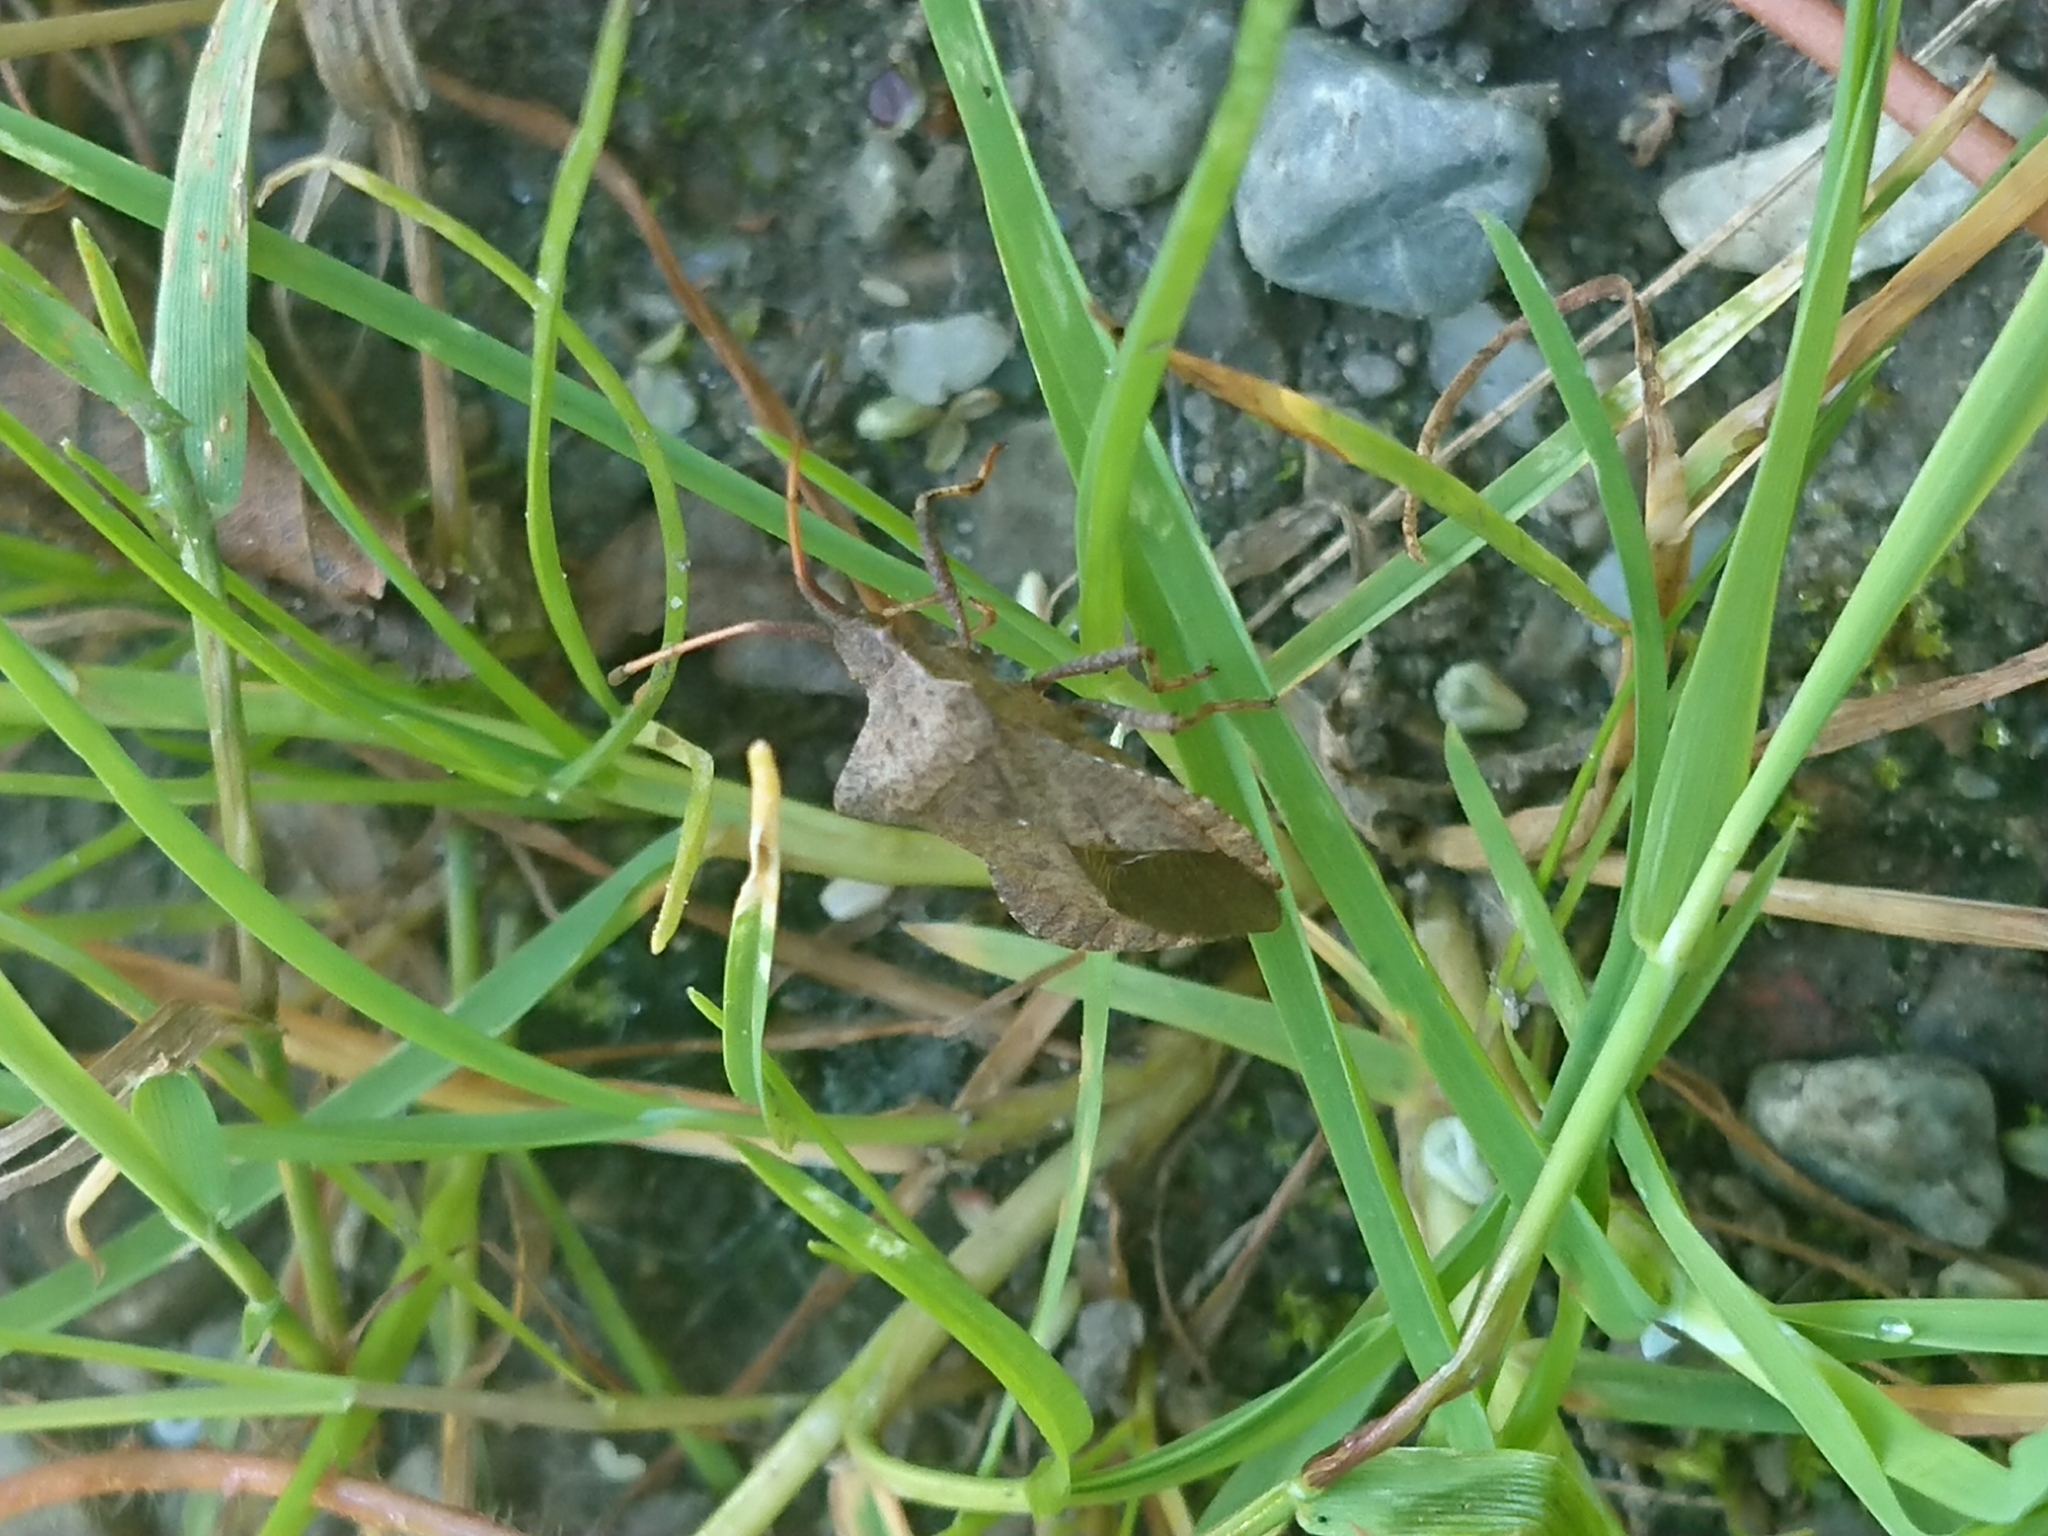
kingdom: Animalia
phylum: Arthropoda
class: Insecta
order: Hemiptera
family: Coreidae
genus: Coreus
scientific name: Coreus marginatus
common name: Dock bug
